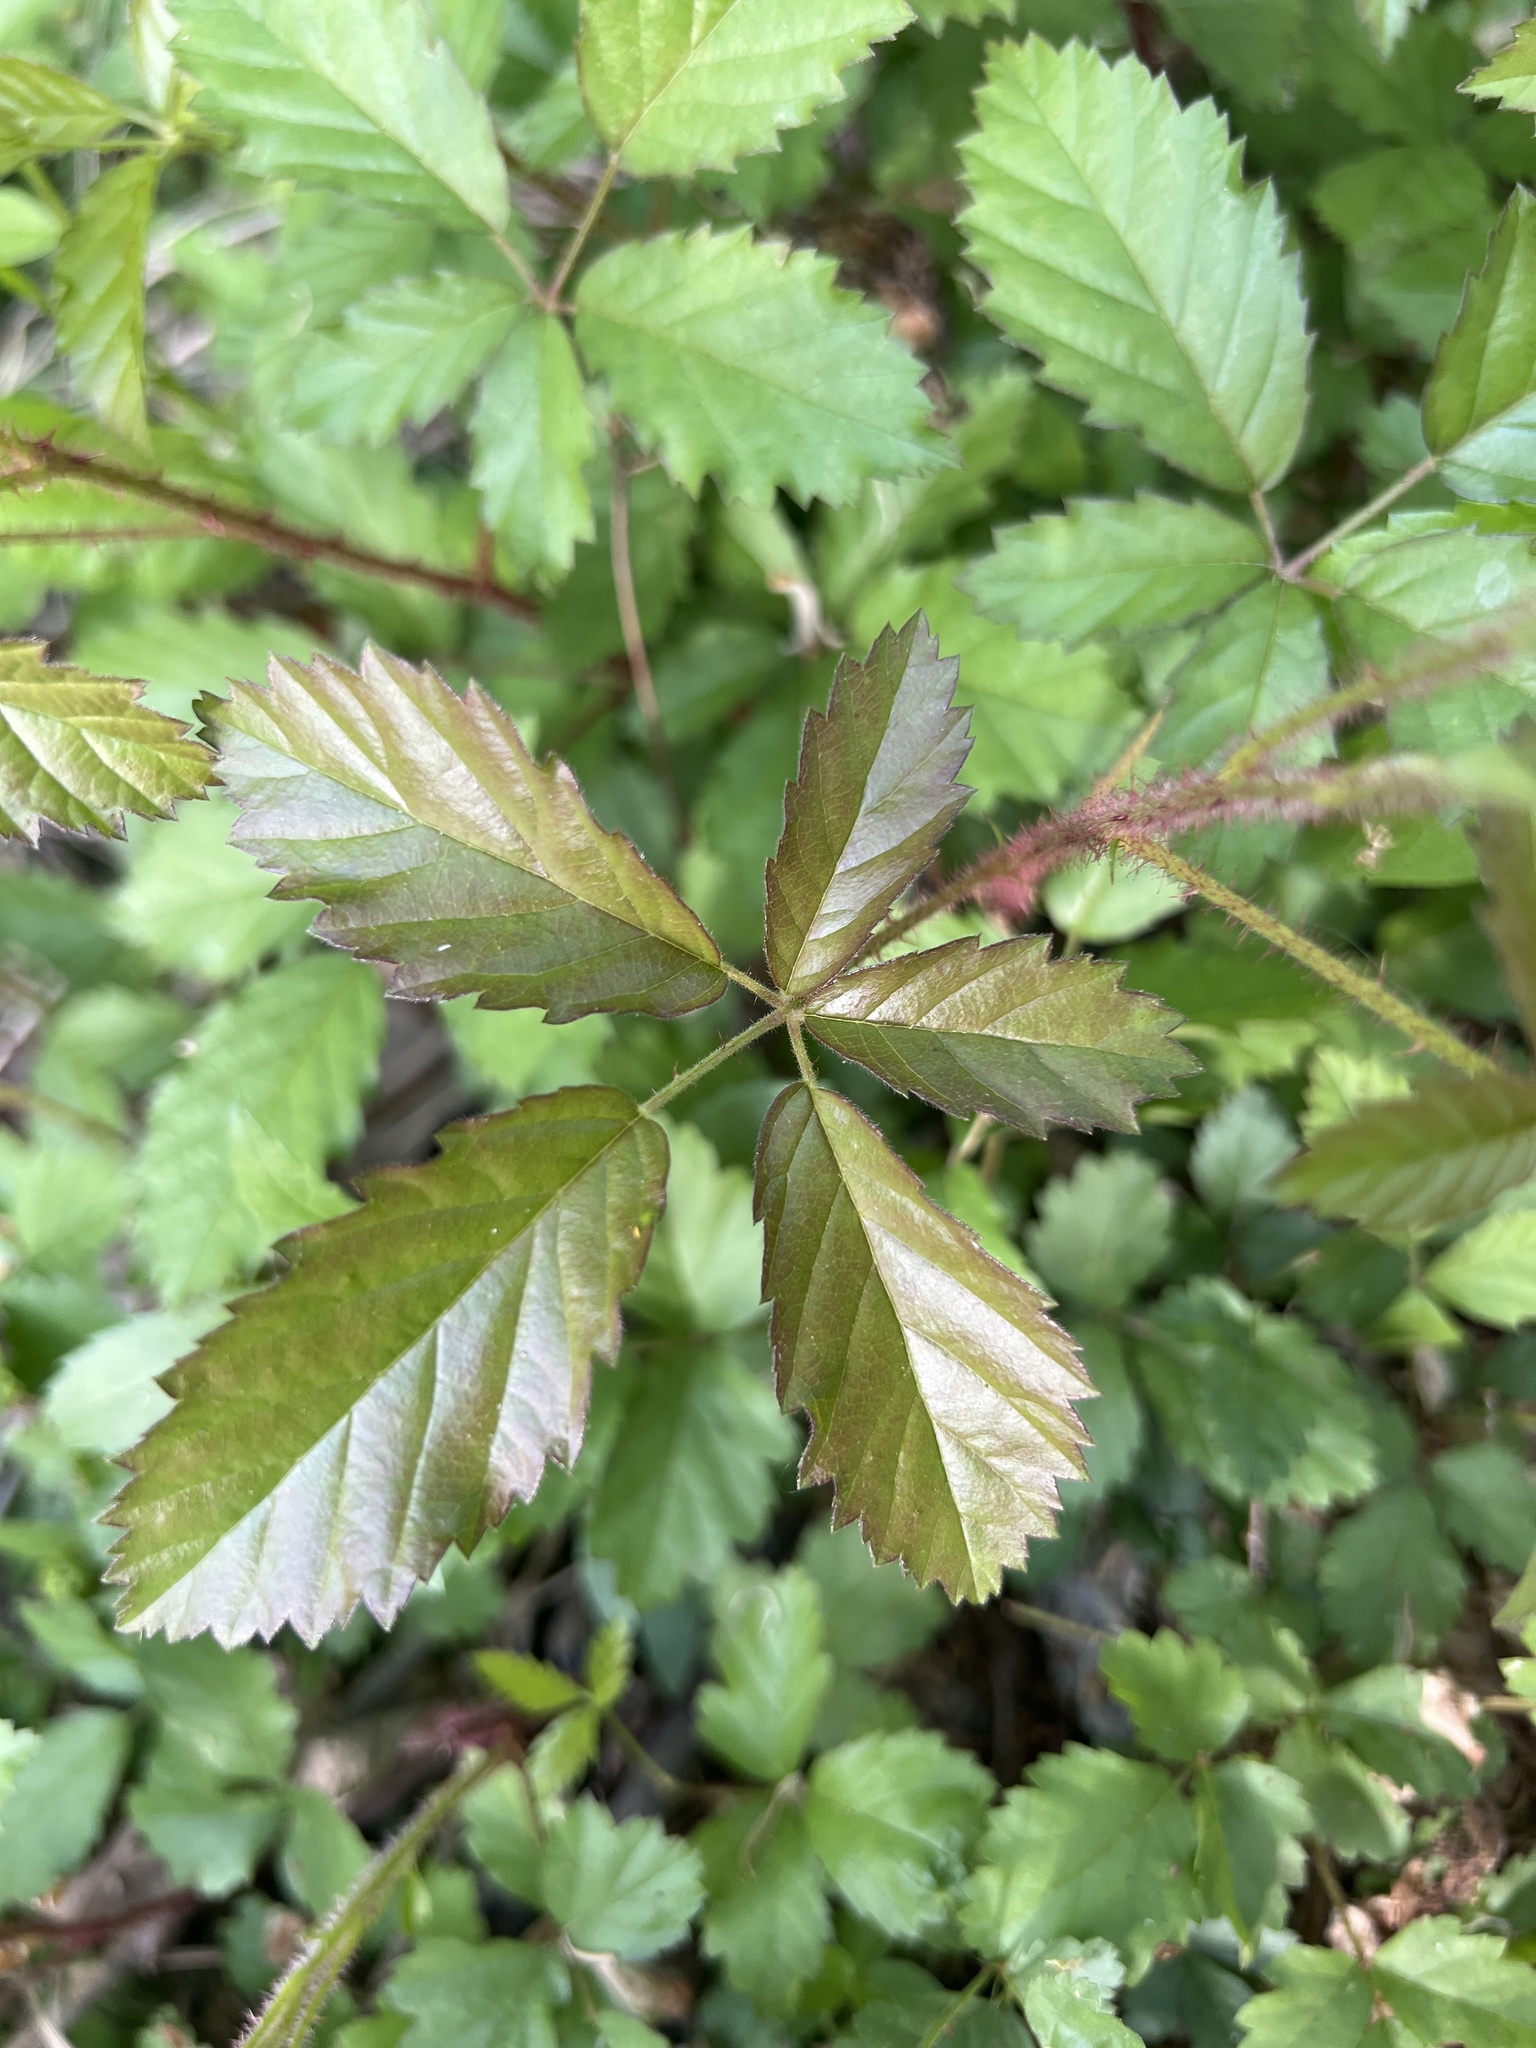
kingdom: Plantae
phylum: Tracheophyta
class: Magnoliopsida
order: Rosales
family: Rosaceae
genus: Rubus
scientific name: Rubus trivialis
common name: Southern dewberry
